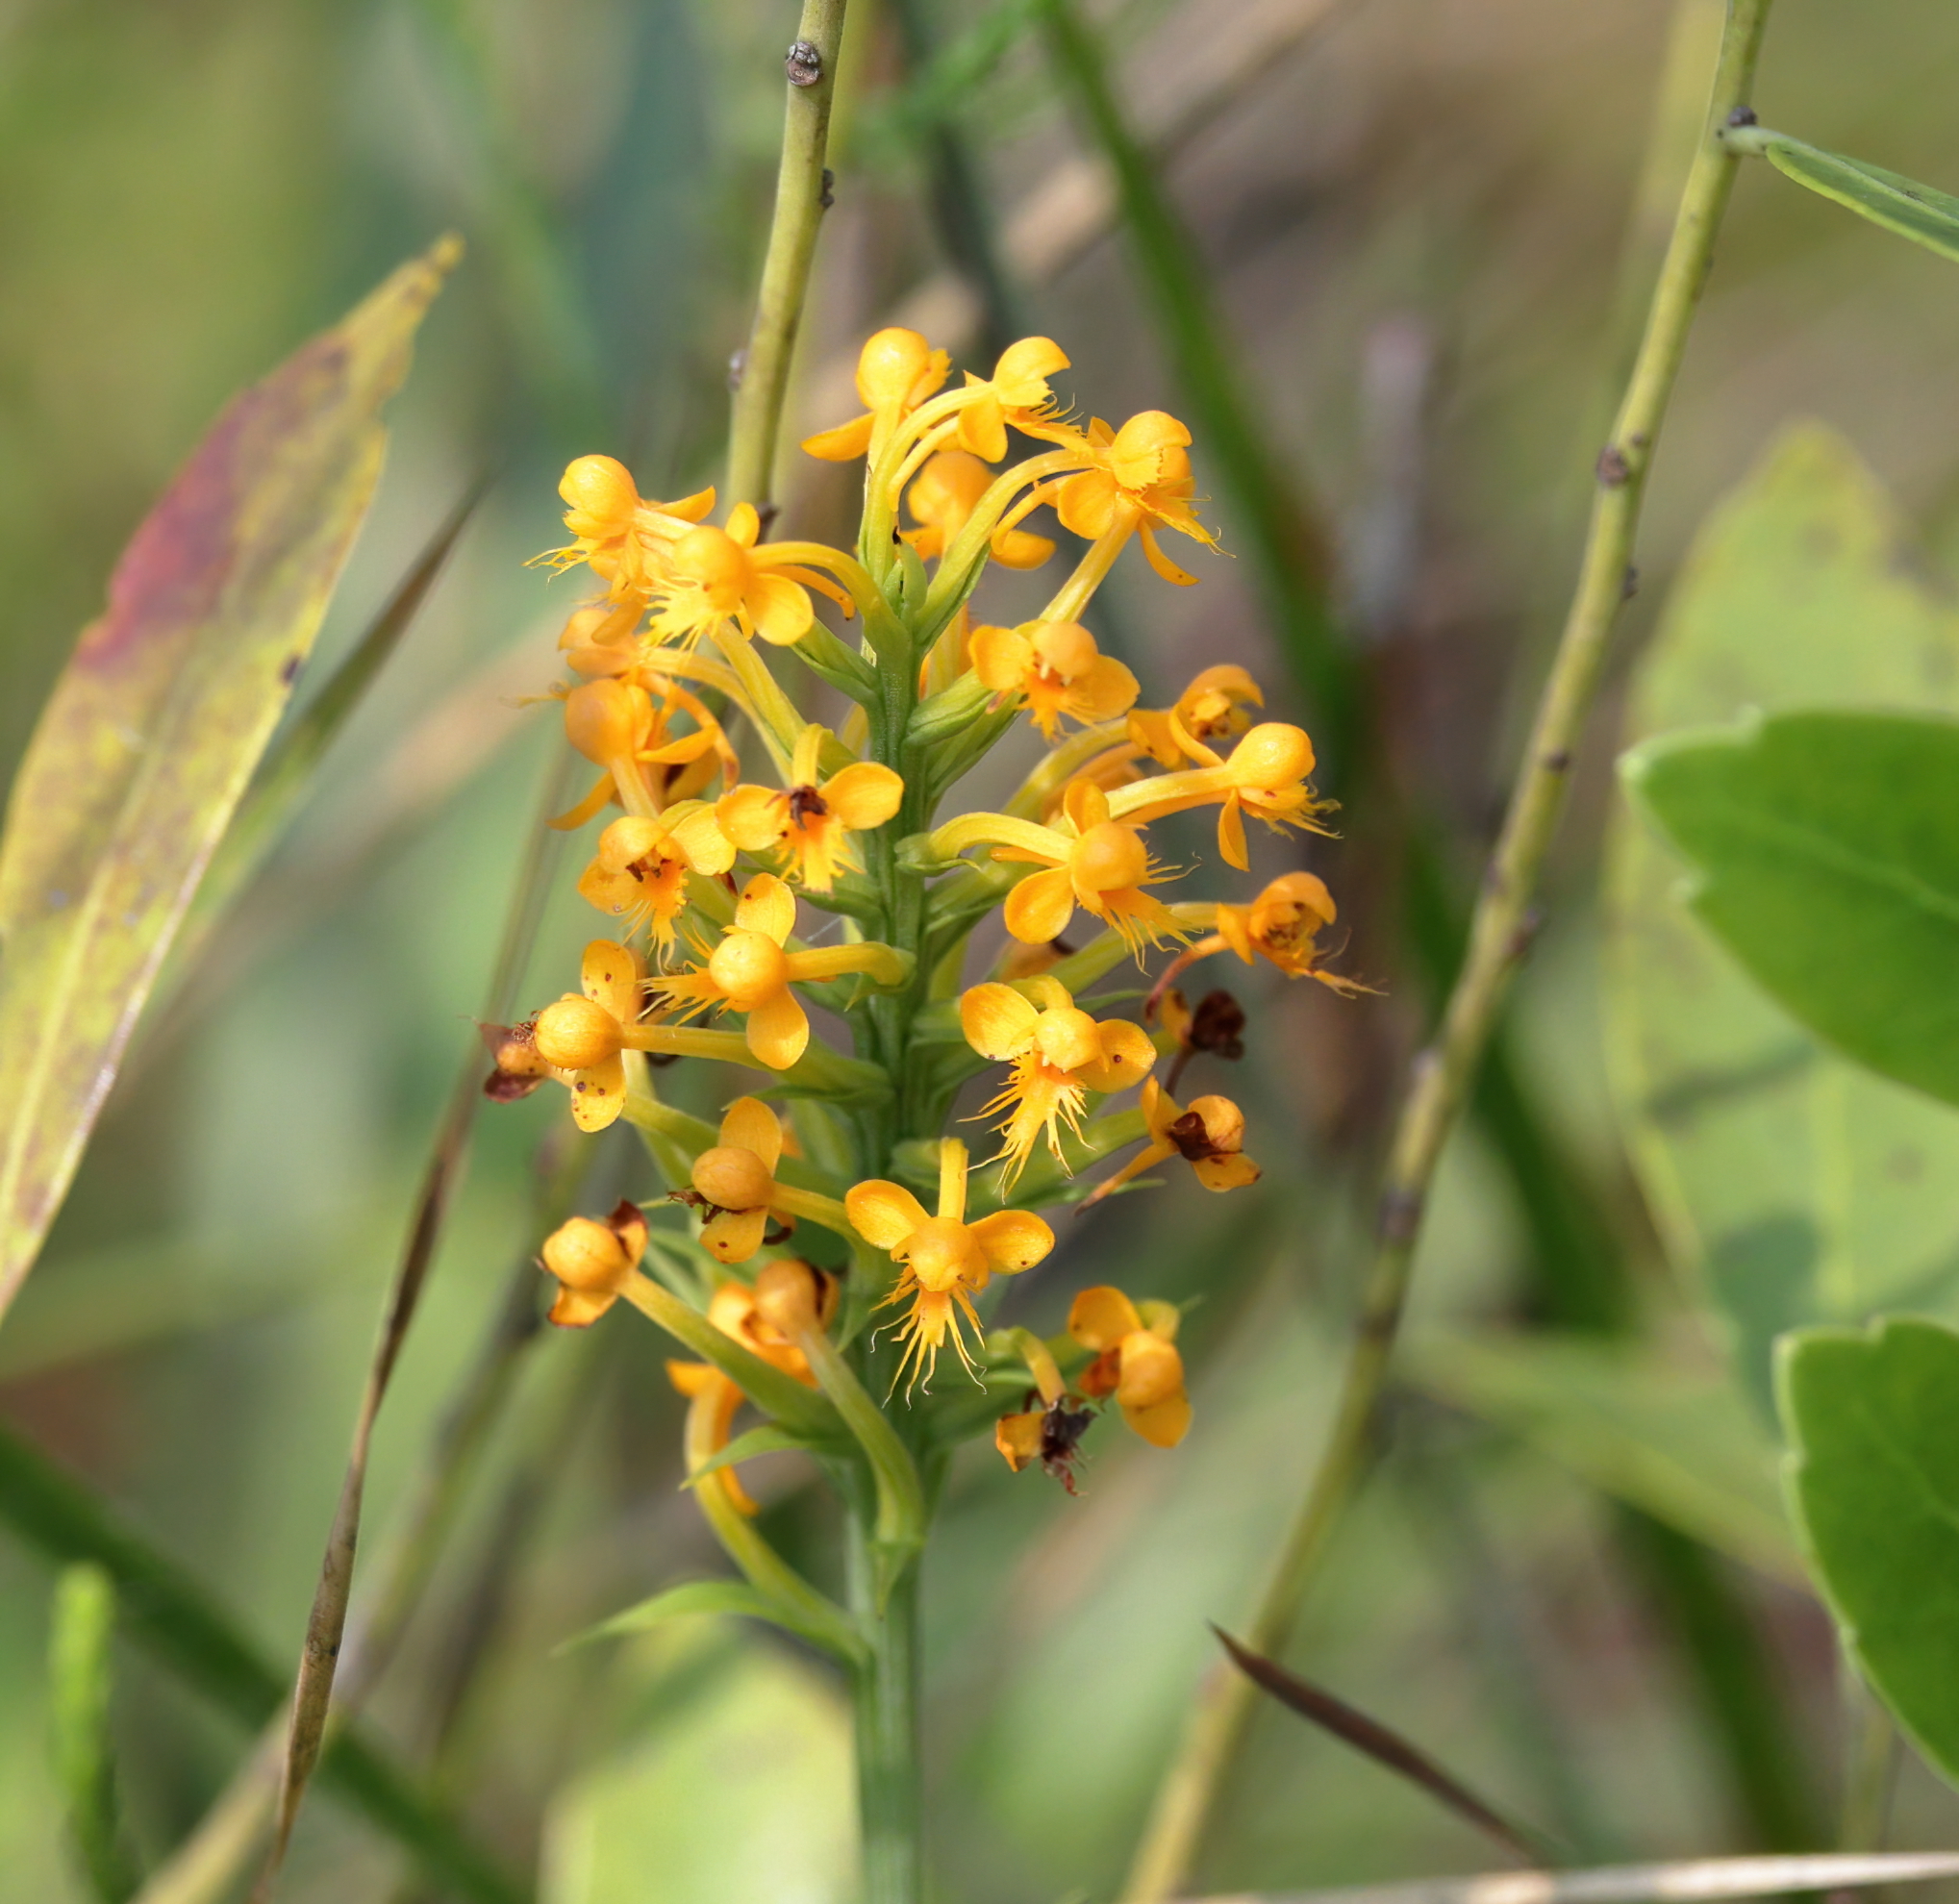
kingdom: Plantae
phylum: Tracheophyta
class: Liliopsida
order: Asparagales
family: Orchidaceae
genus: Platanthera
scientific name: Platanthera cristata
